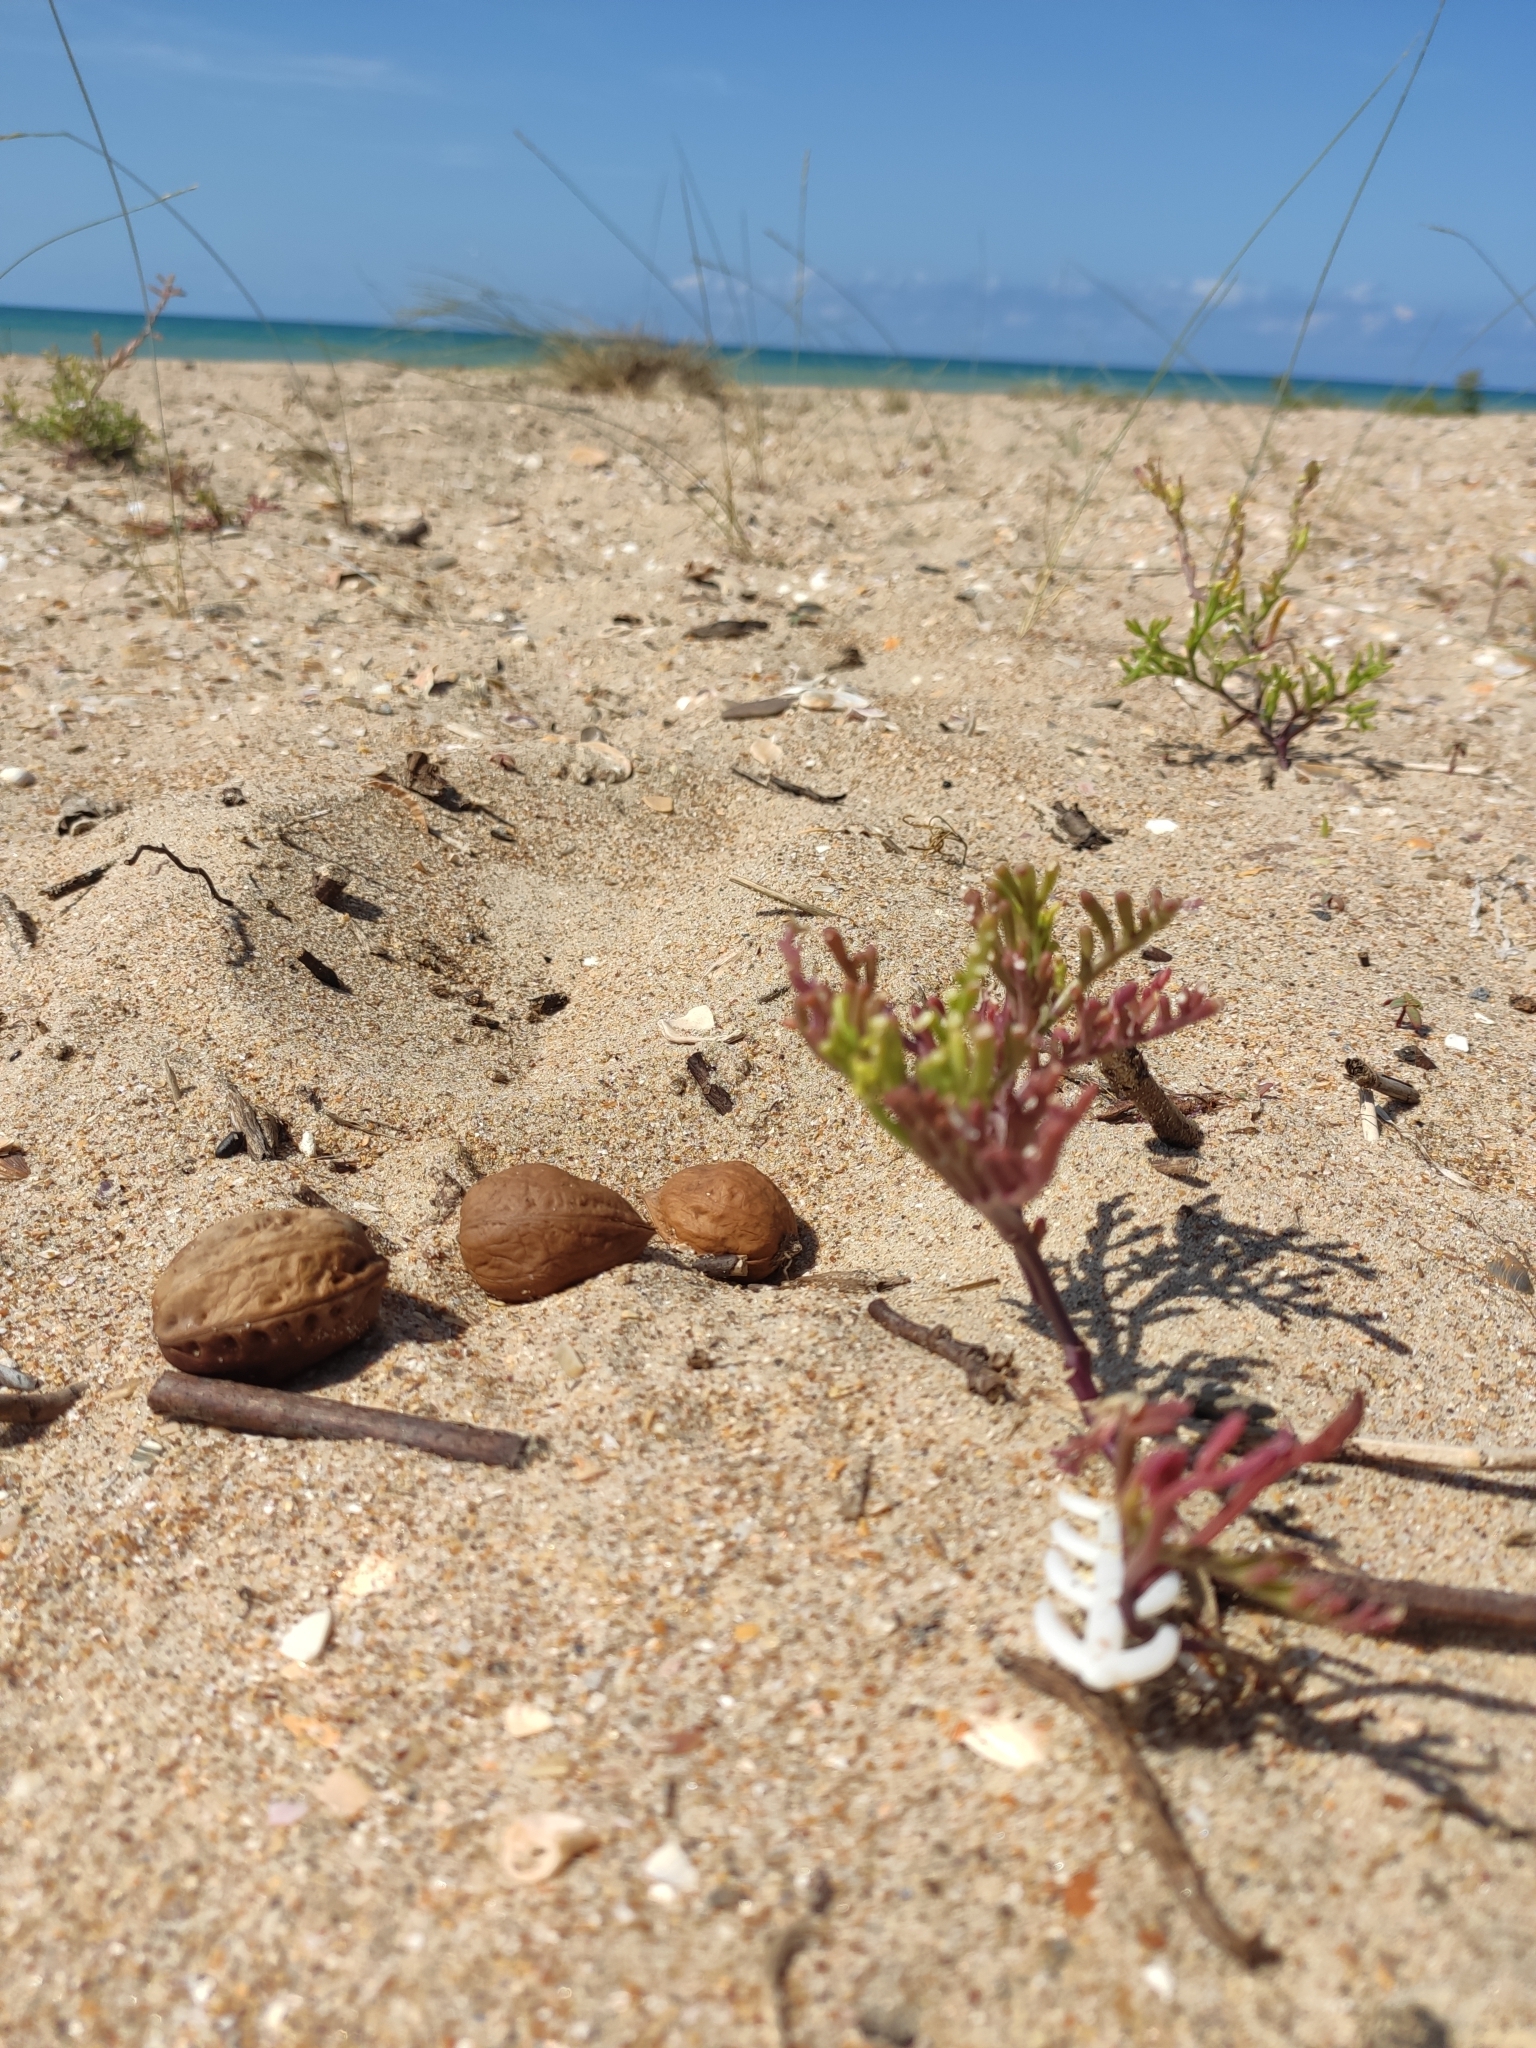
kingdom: Plantae
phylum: Tracheophyta
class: Magnoliopsida
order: Brassicales
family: Brassicaceae
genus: Cakile
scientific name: Cakile maritima
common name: Sea rocket
